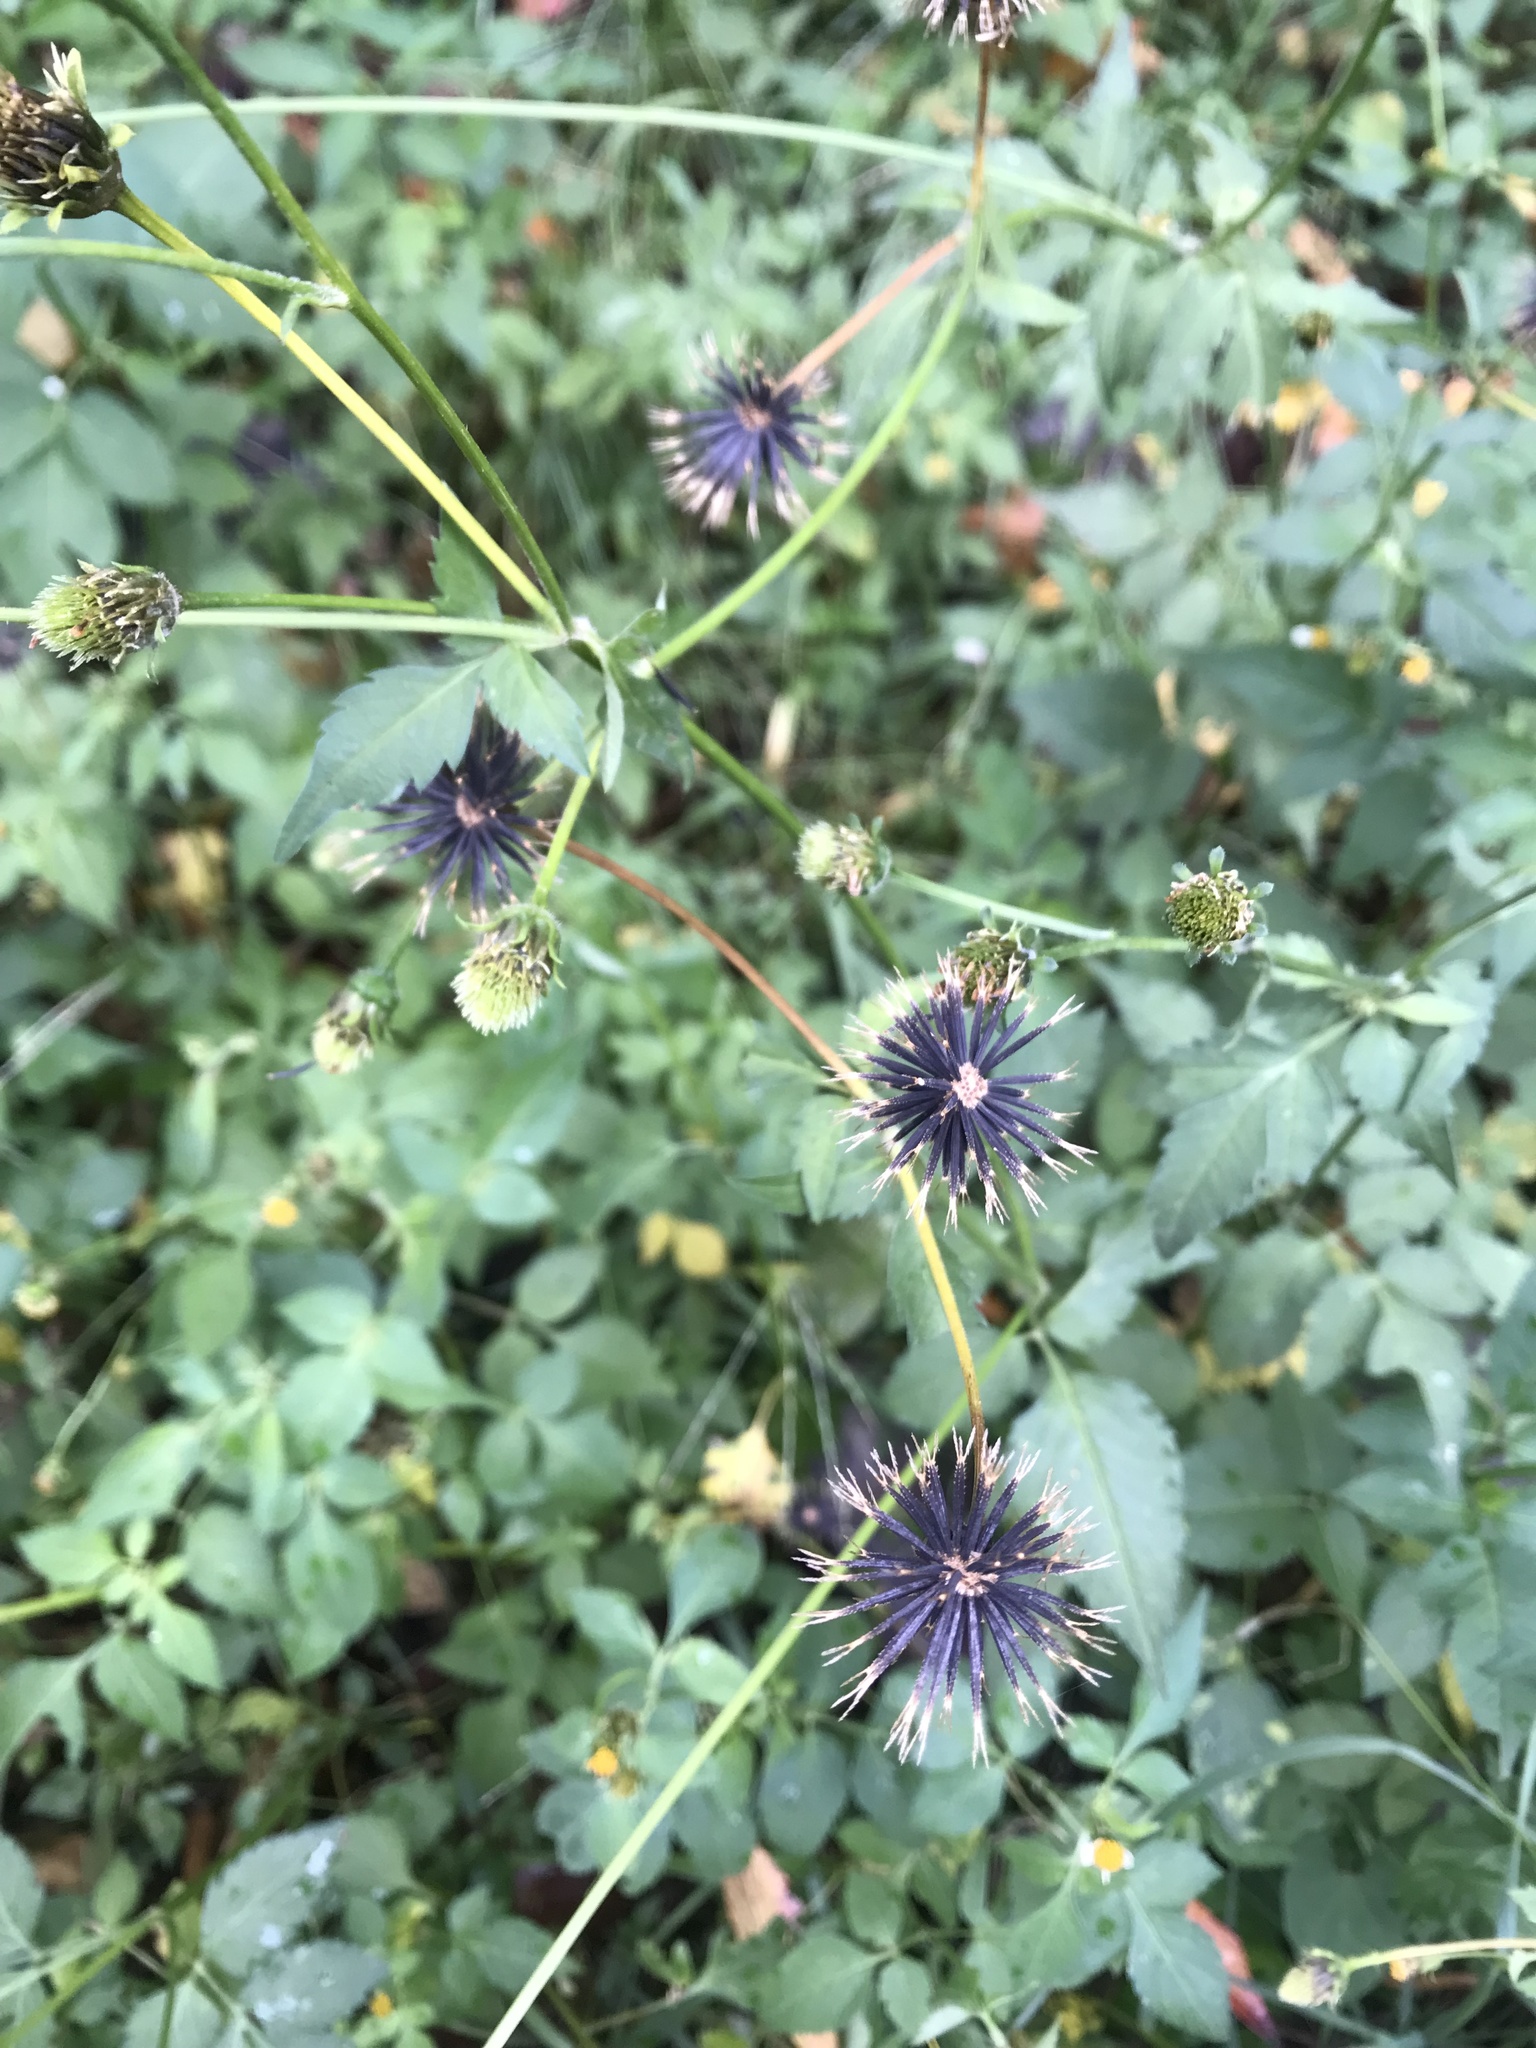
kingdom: Plantae
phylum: Tracheophyta
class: Magnoliopsida
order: Asterales
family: Asteraceae
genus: Bidens
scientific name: Bidens pilosa
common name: Black-jack
